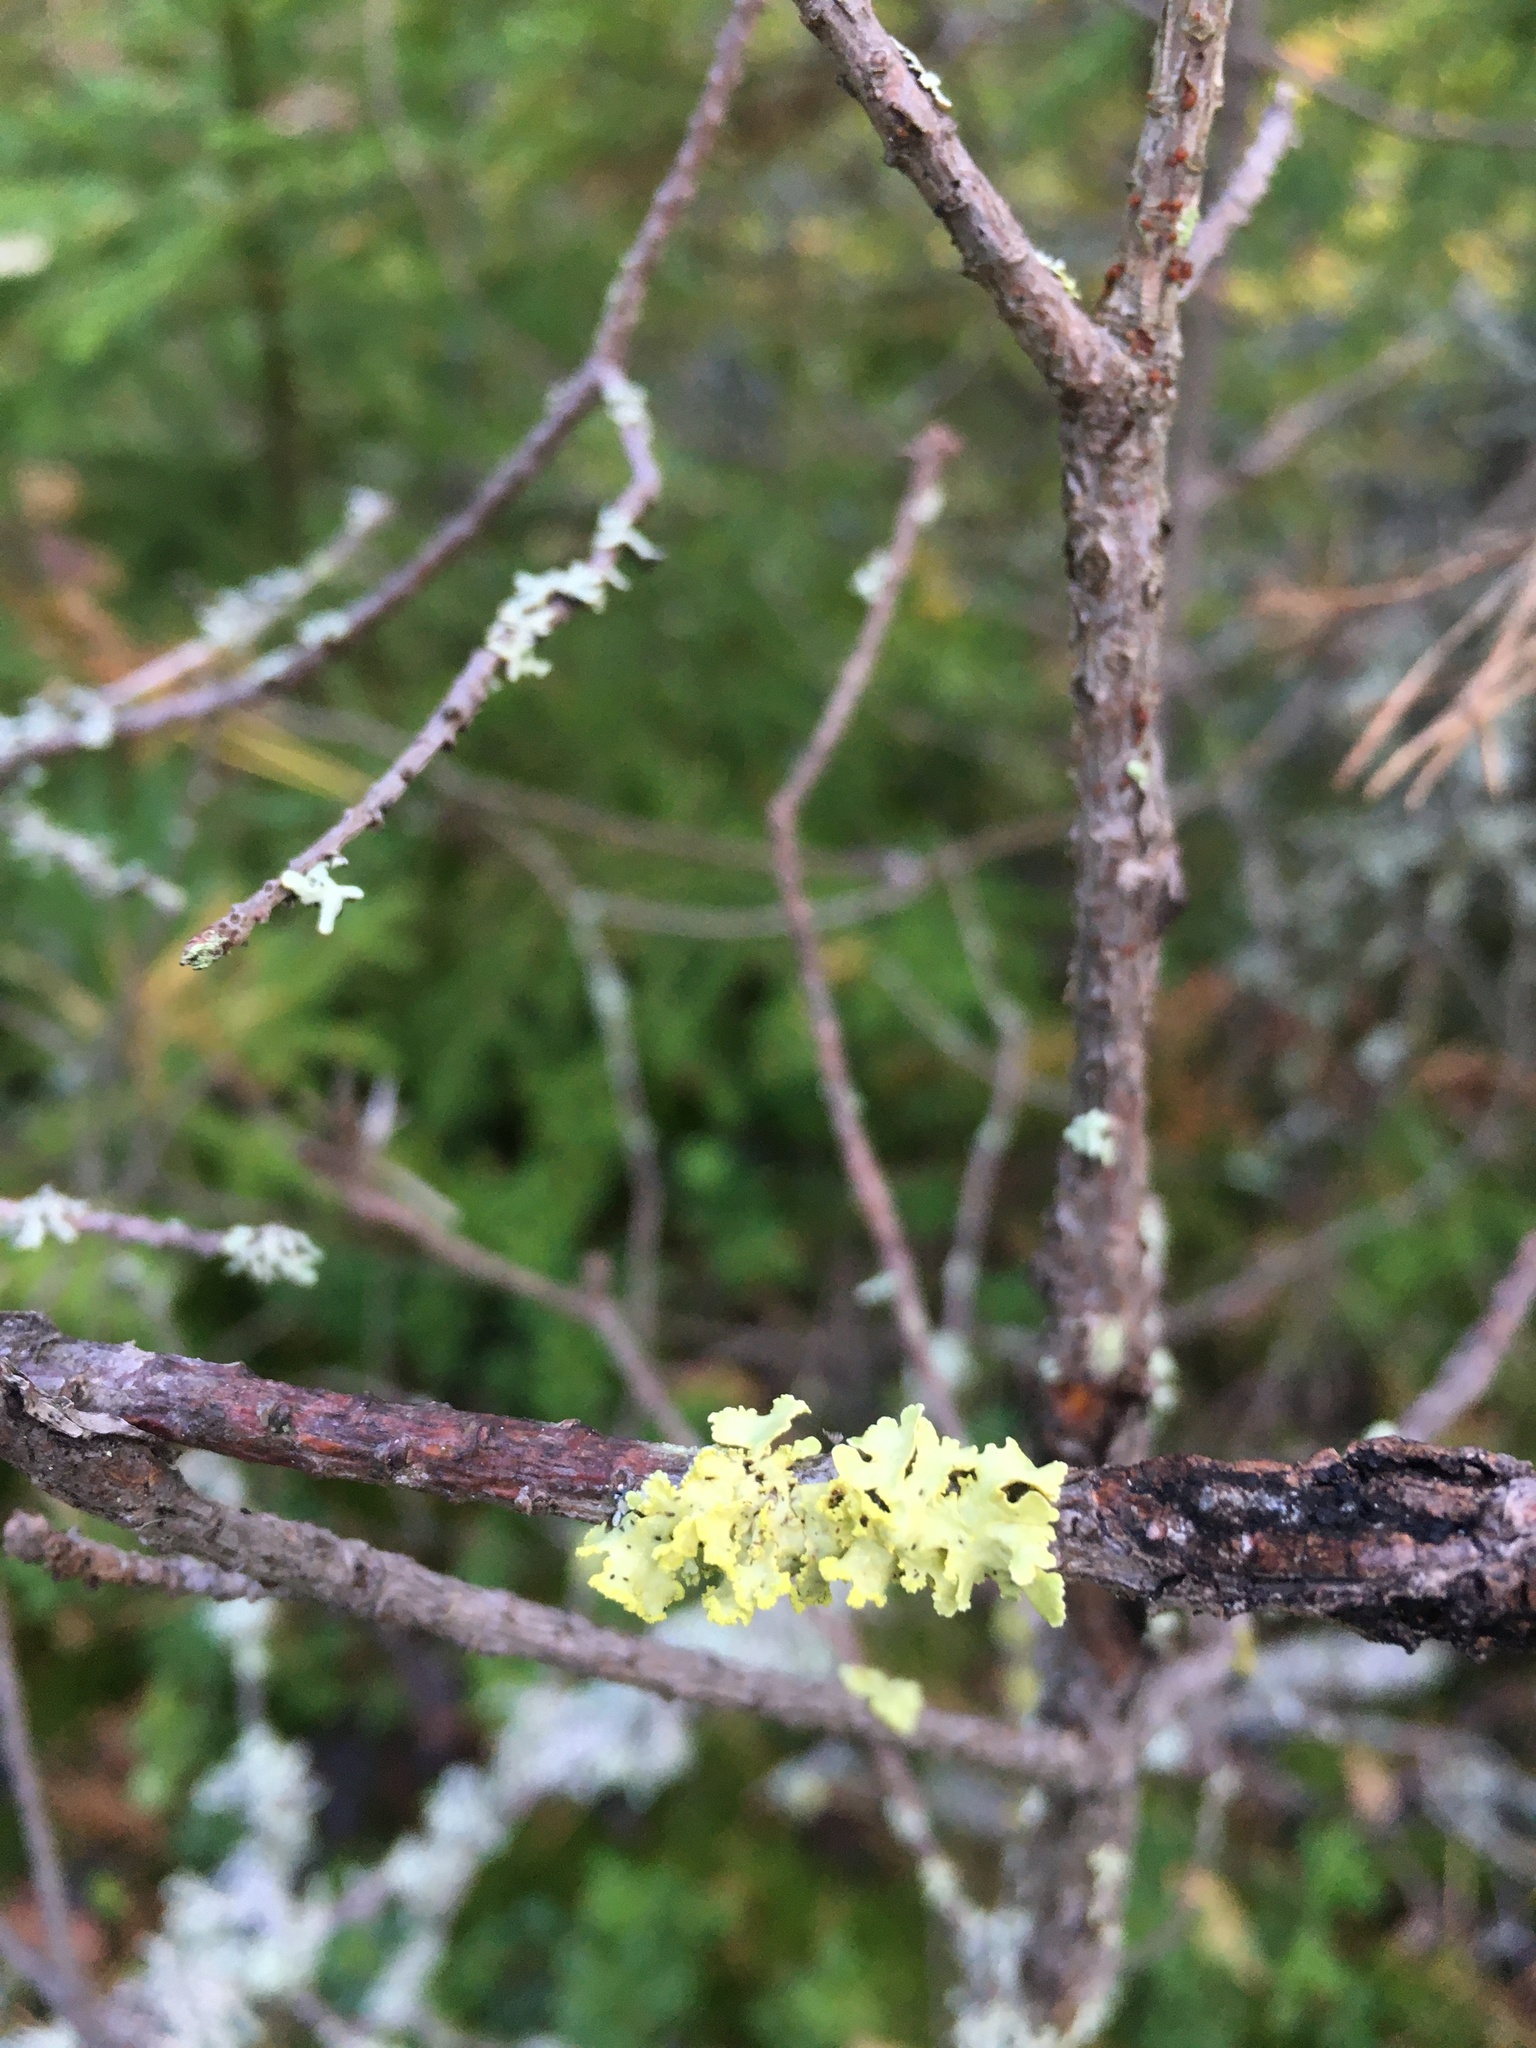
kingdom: Fungi
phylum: Ascomycota
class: Lecanoromycetes
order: Lecanorales
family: Parmeliaceae
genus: Vulpicida
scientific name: Vulpicida pinastri
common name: Powdered sunshine lichen
